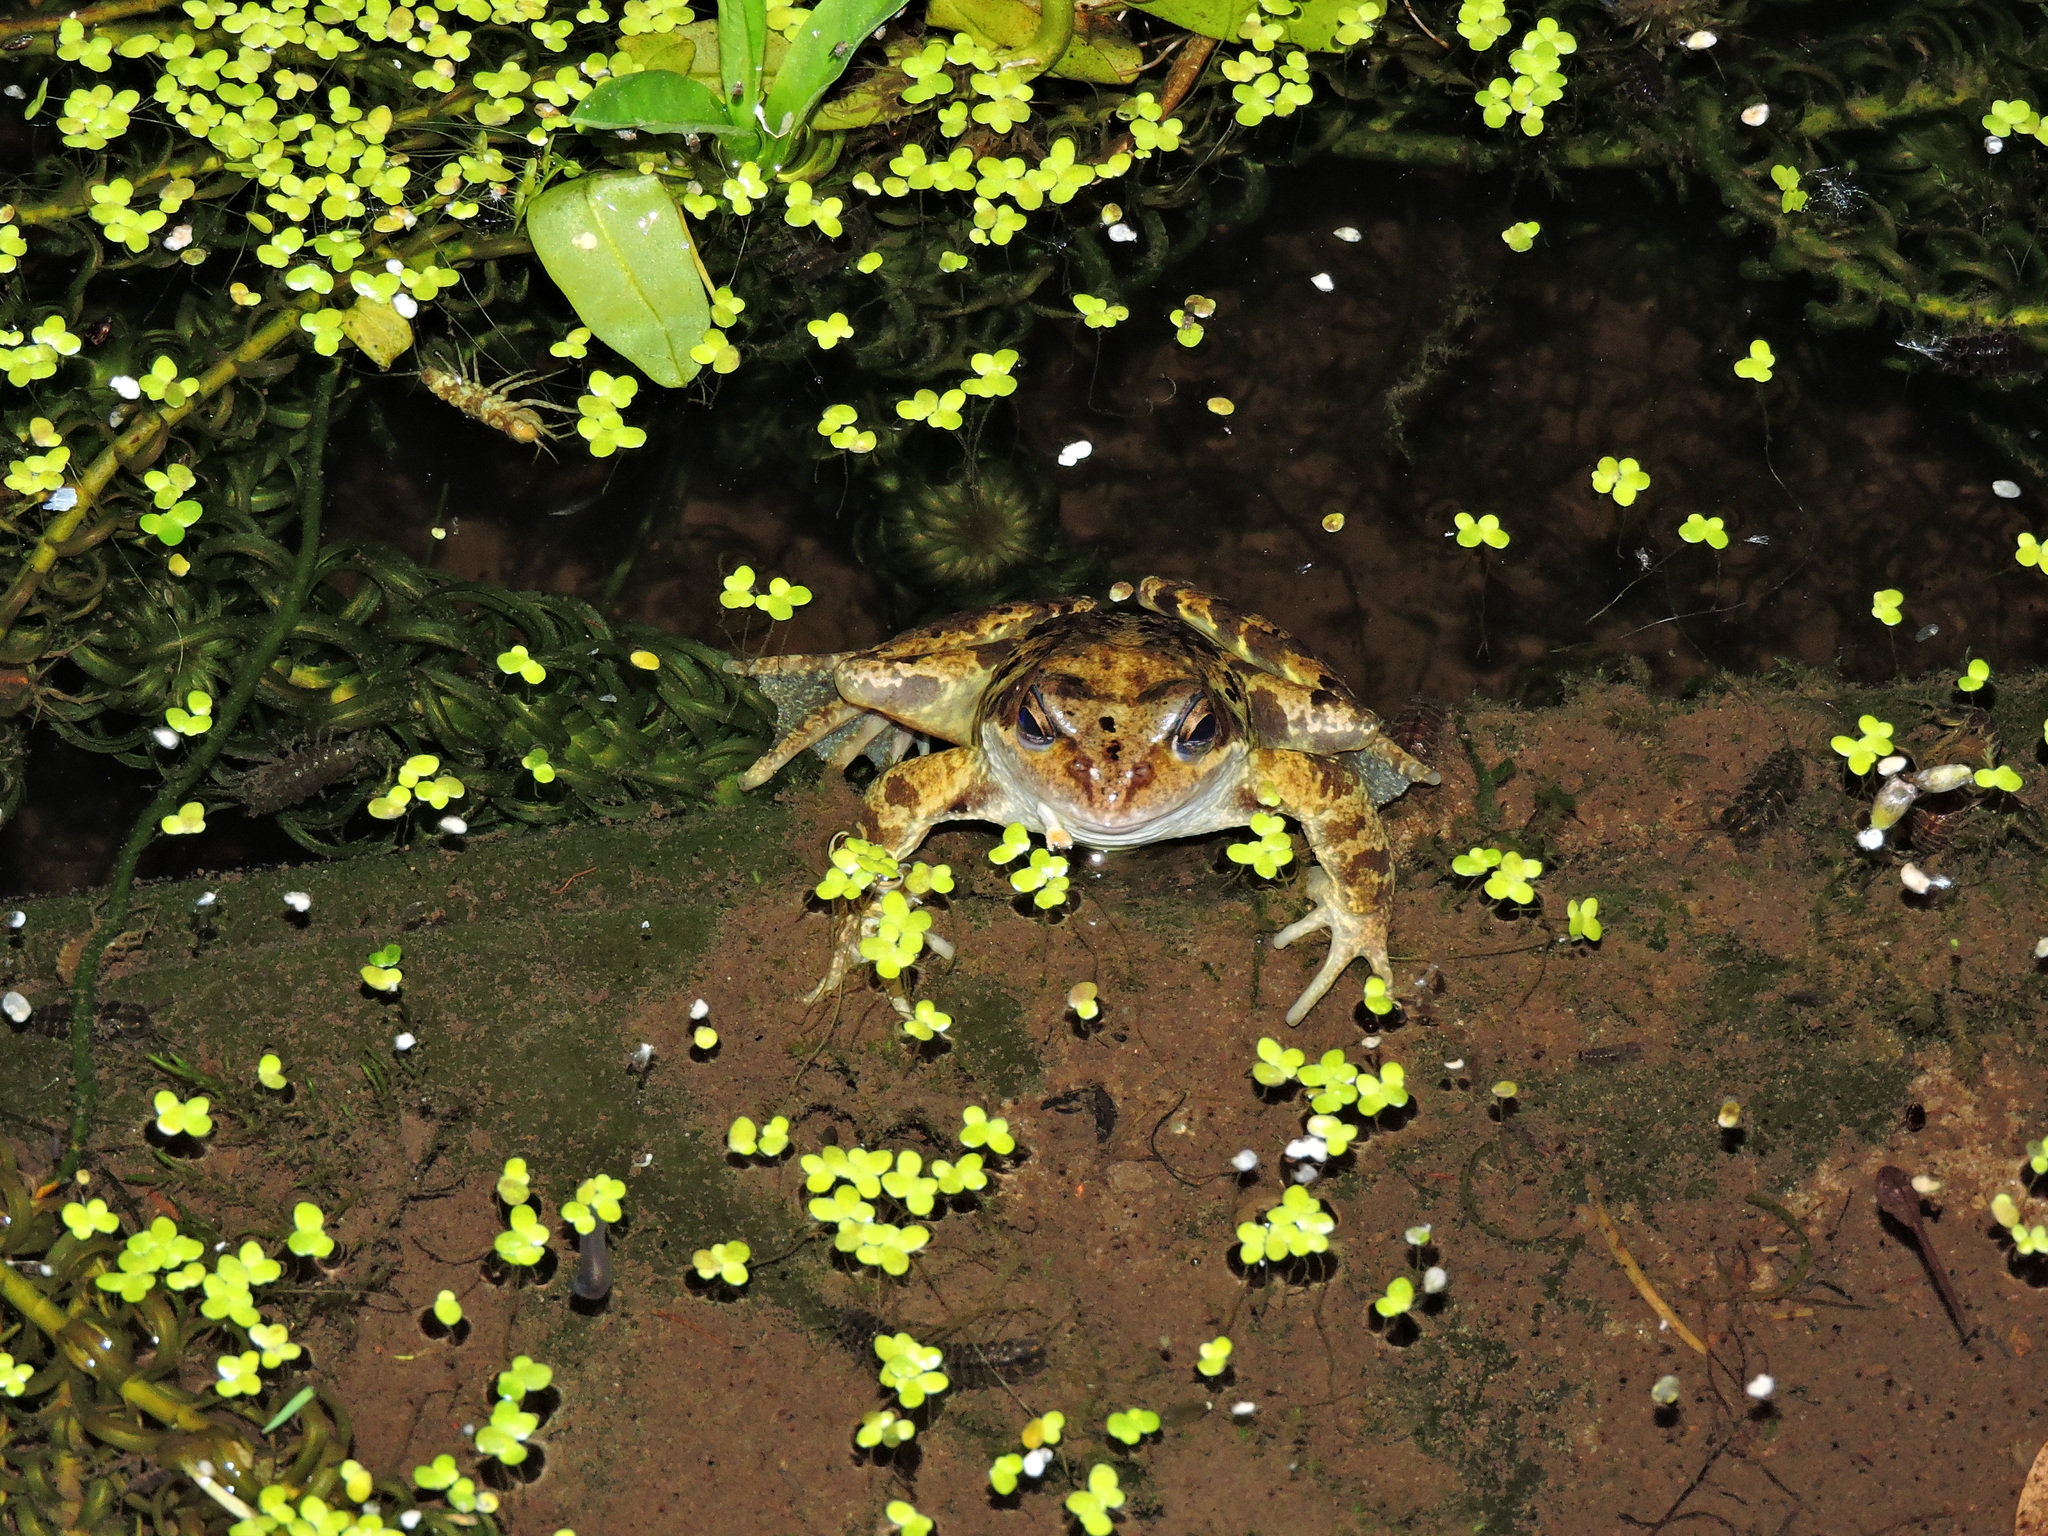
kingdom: Animalia
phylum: Arthropoda
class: Malacostraca
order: Isopoda
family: Asellidae
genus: Asellus
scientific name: Asellus aquaticus
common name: Water hog lice/slaters
